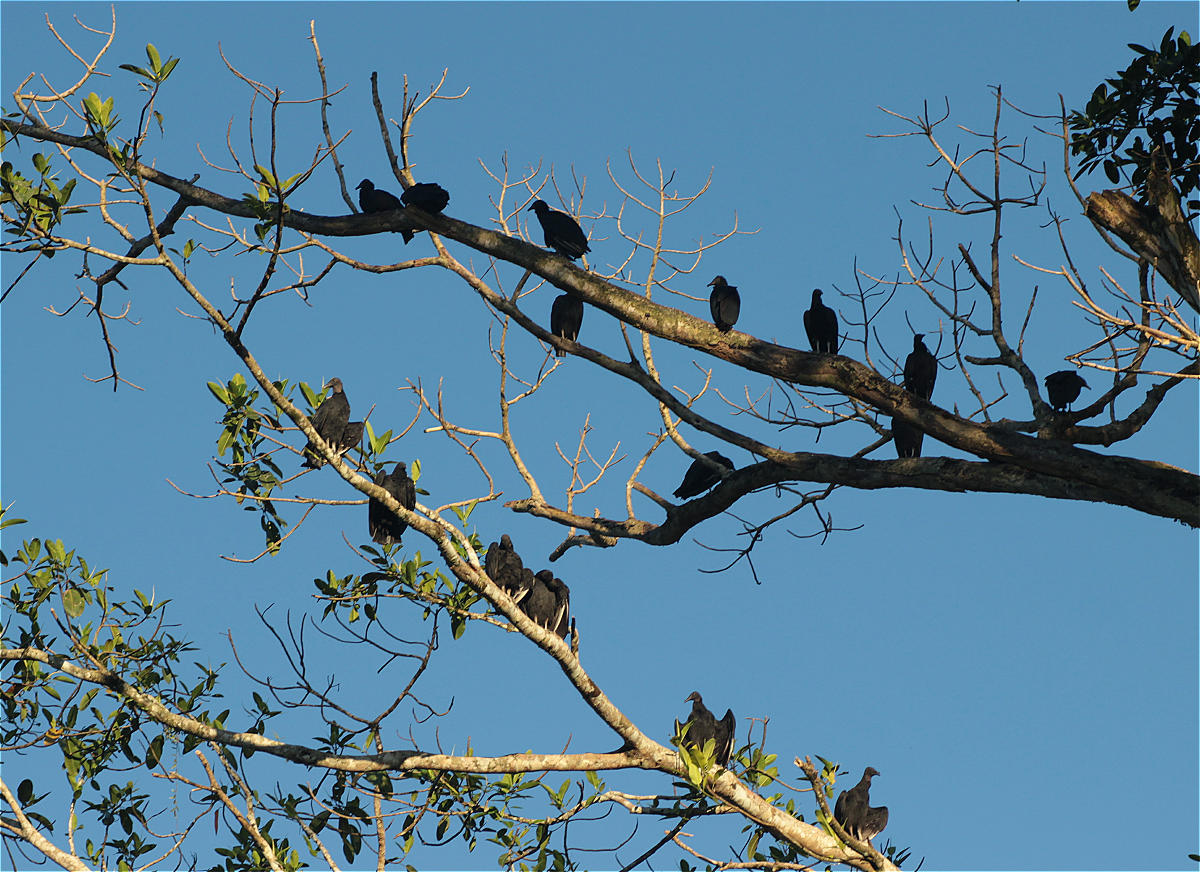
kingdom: Animalia
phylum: Chordata
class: Aves
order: Accipitriformes
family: Cathartidae
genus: Coragyps
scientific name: Coragyps atratus
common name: Black vulture
